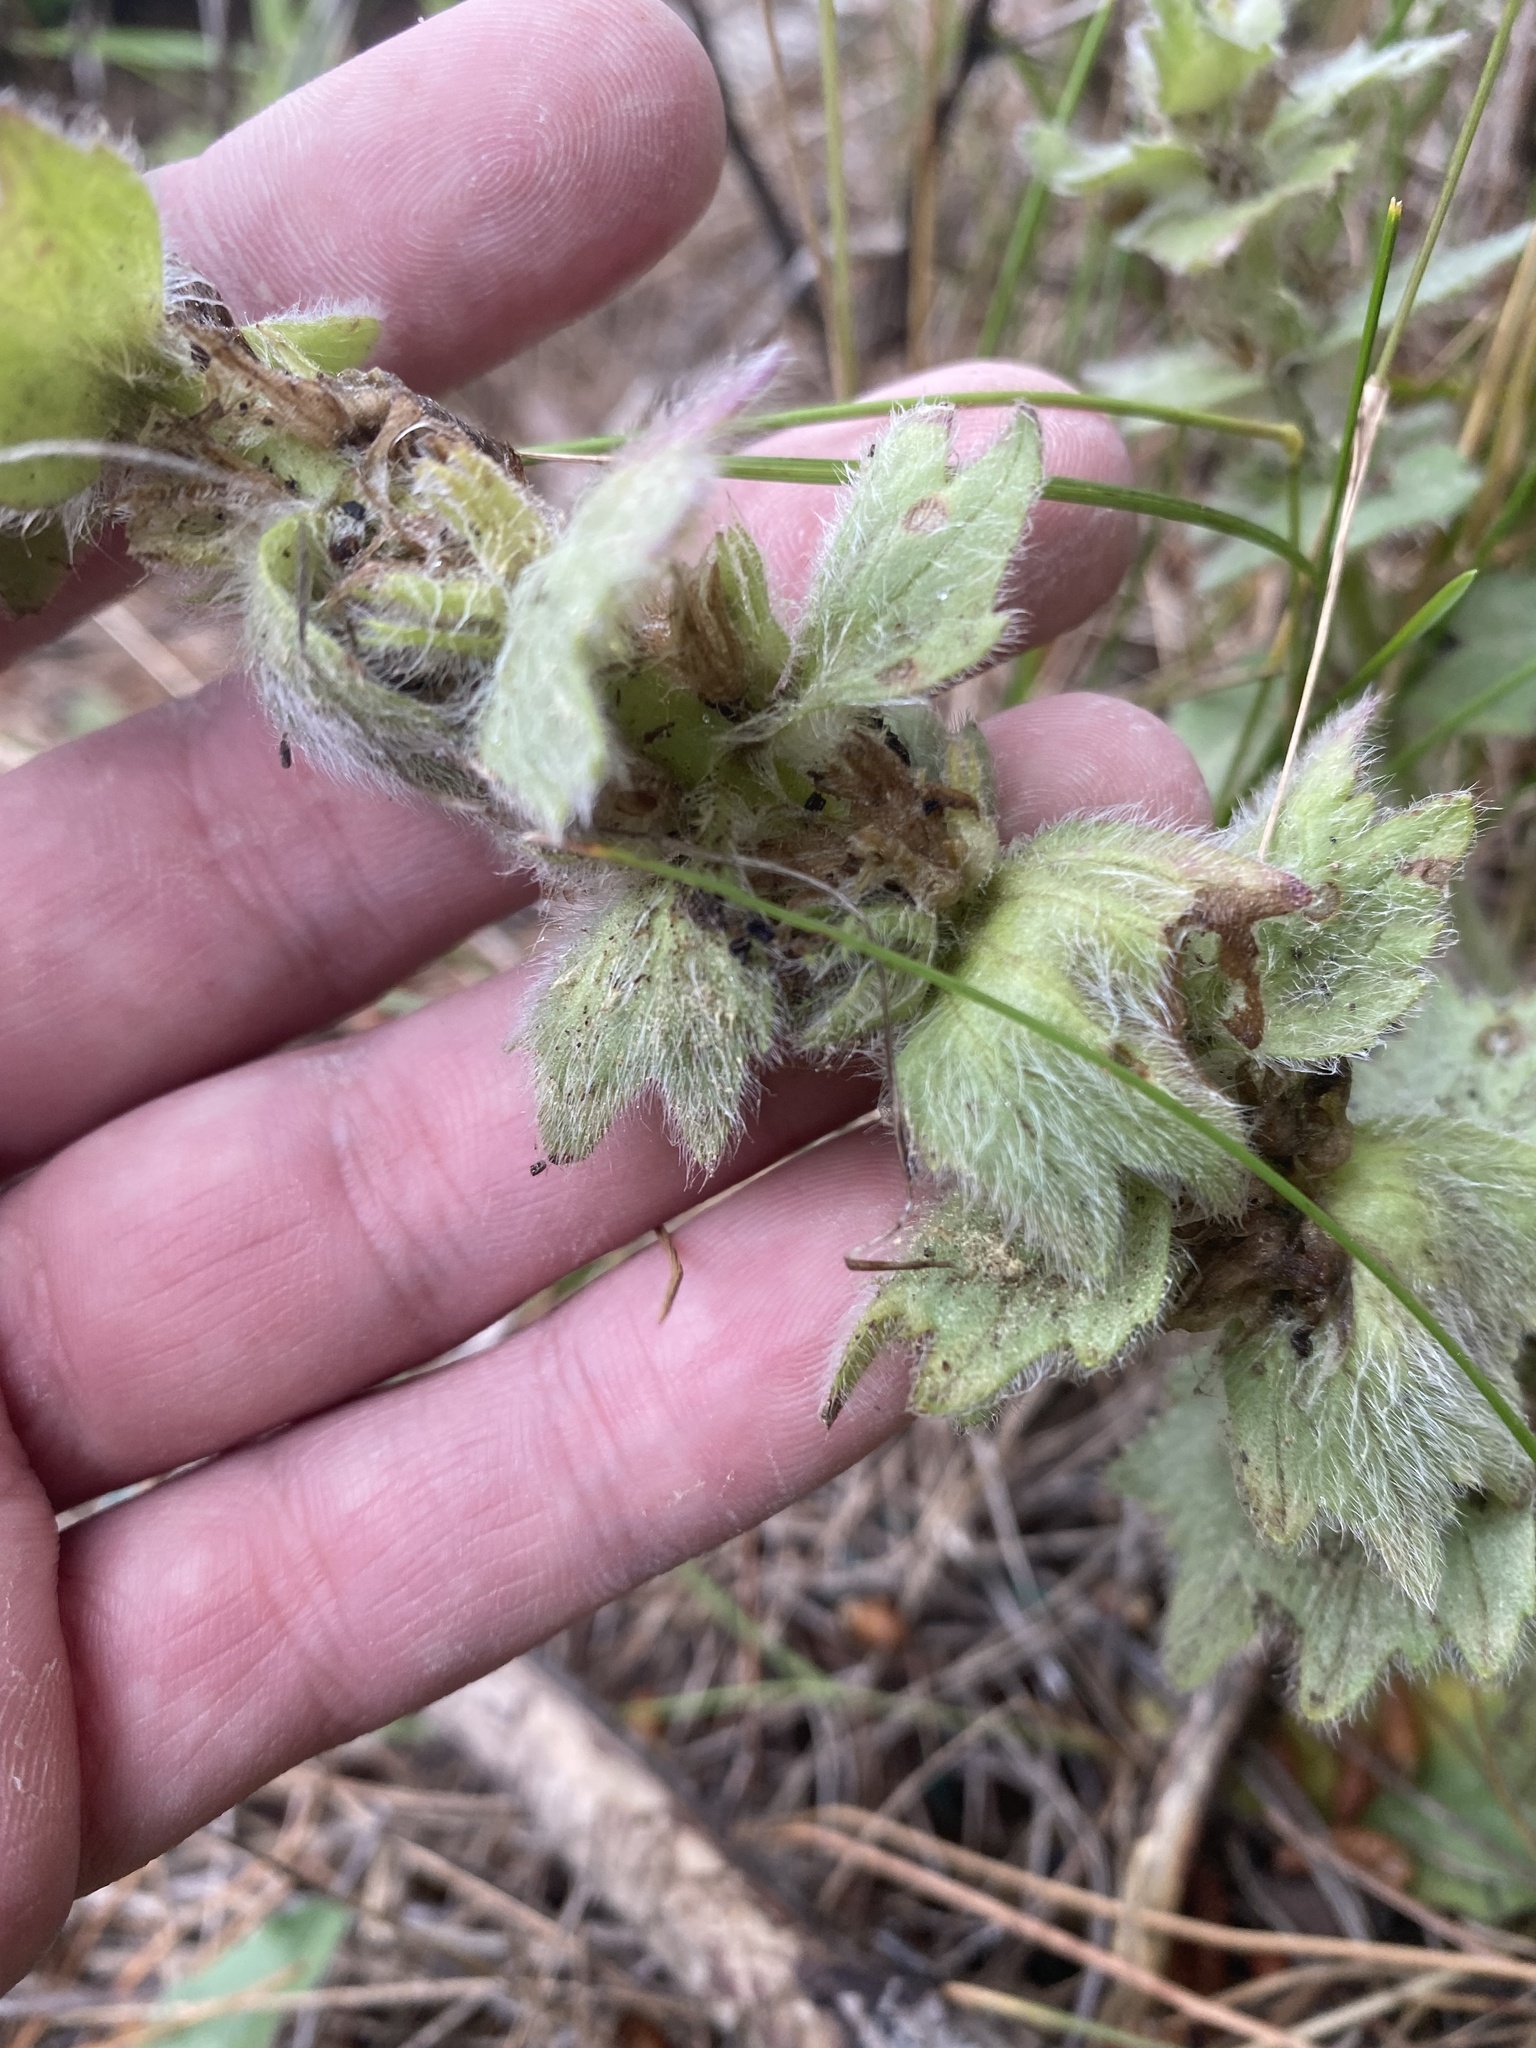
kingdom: Plantae
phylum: Tracheophyta
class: Magnoliopsida
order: Lamiales
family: Lamiaceae
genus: Ajuga
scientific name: Ajuga orientalis
